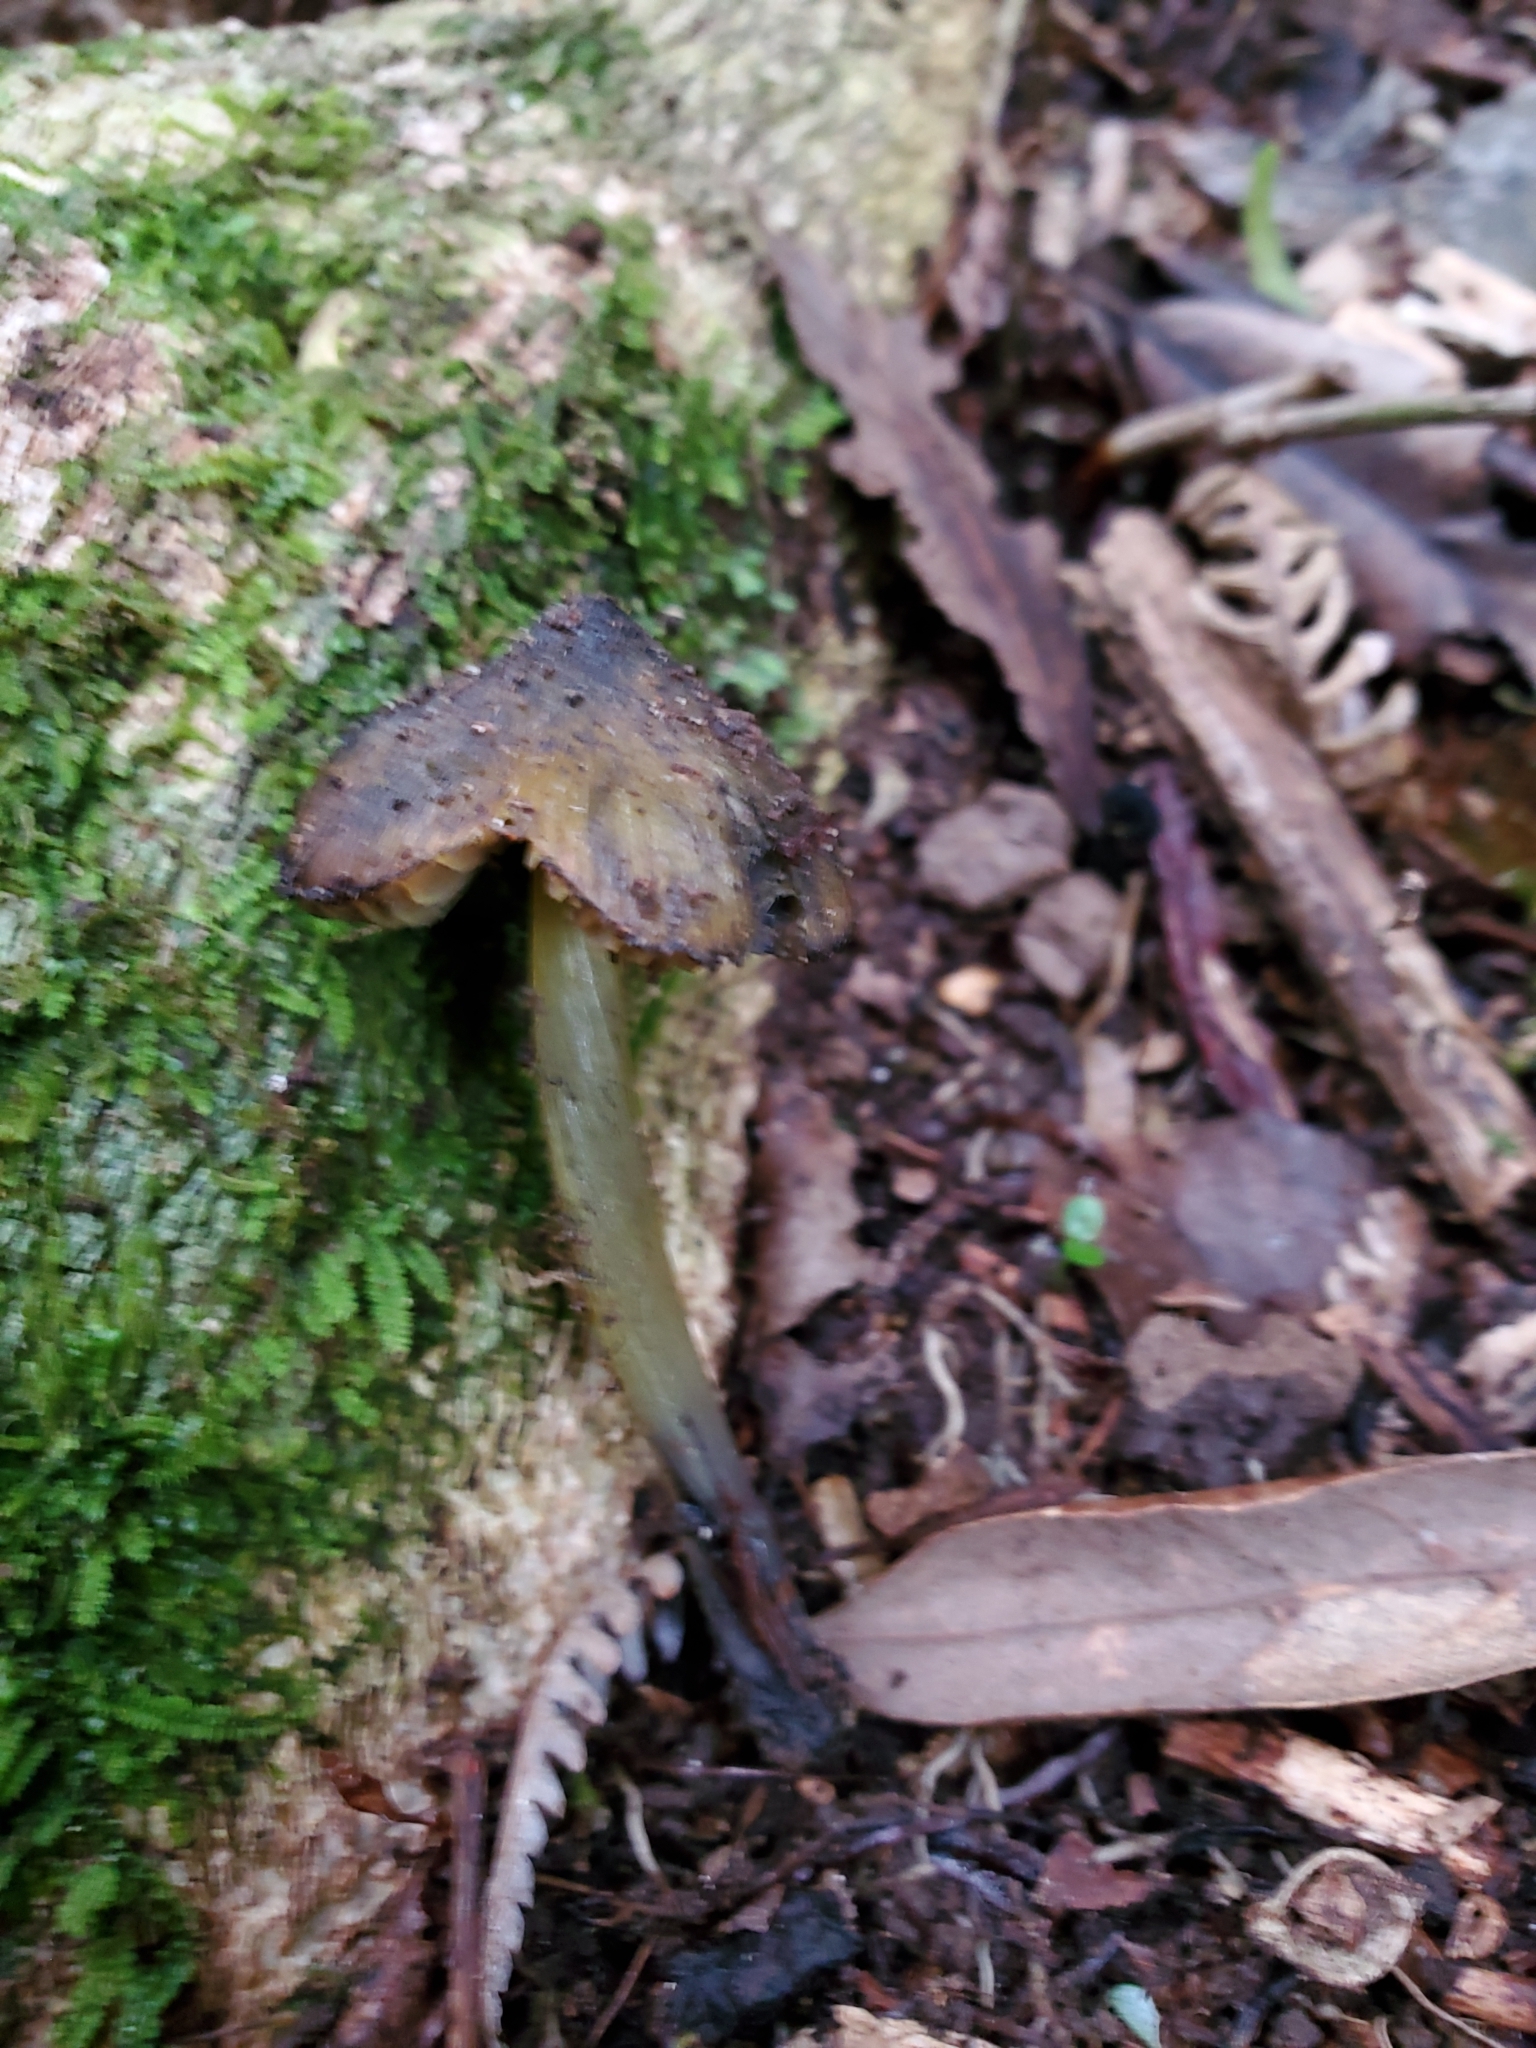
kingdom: Fungi
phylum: Basidiomycota
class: Agaricomycetes
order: Agaricales
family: Hygrophoraceae
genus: Hygrocybe
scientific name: Hygrocybe astatogala
